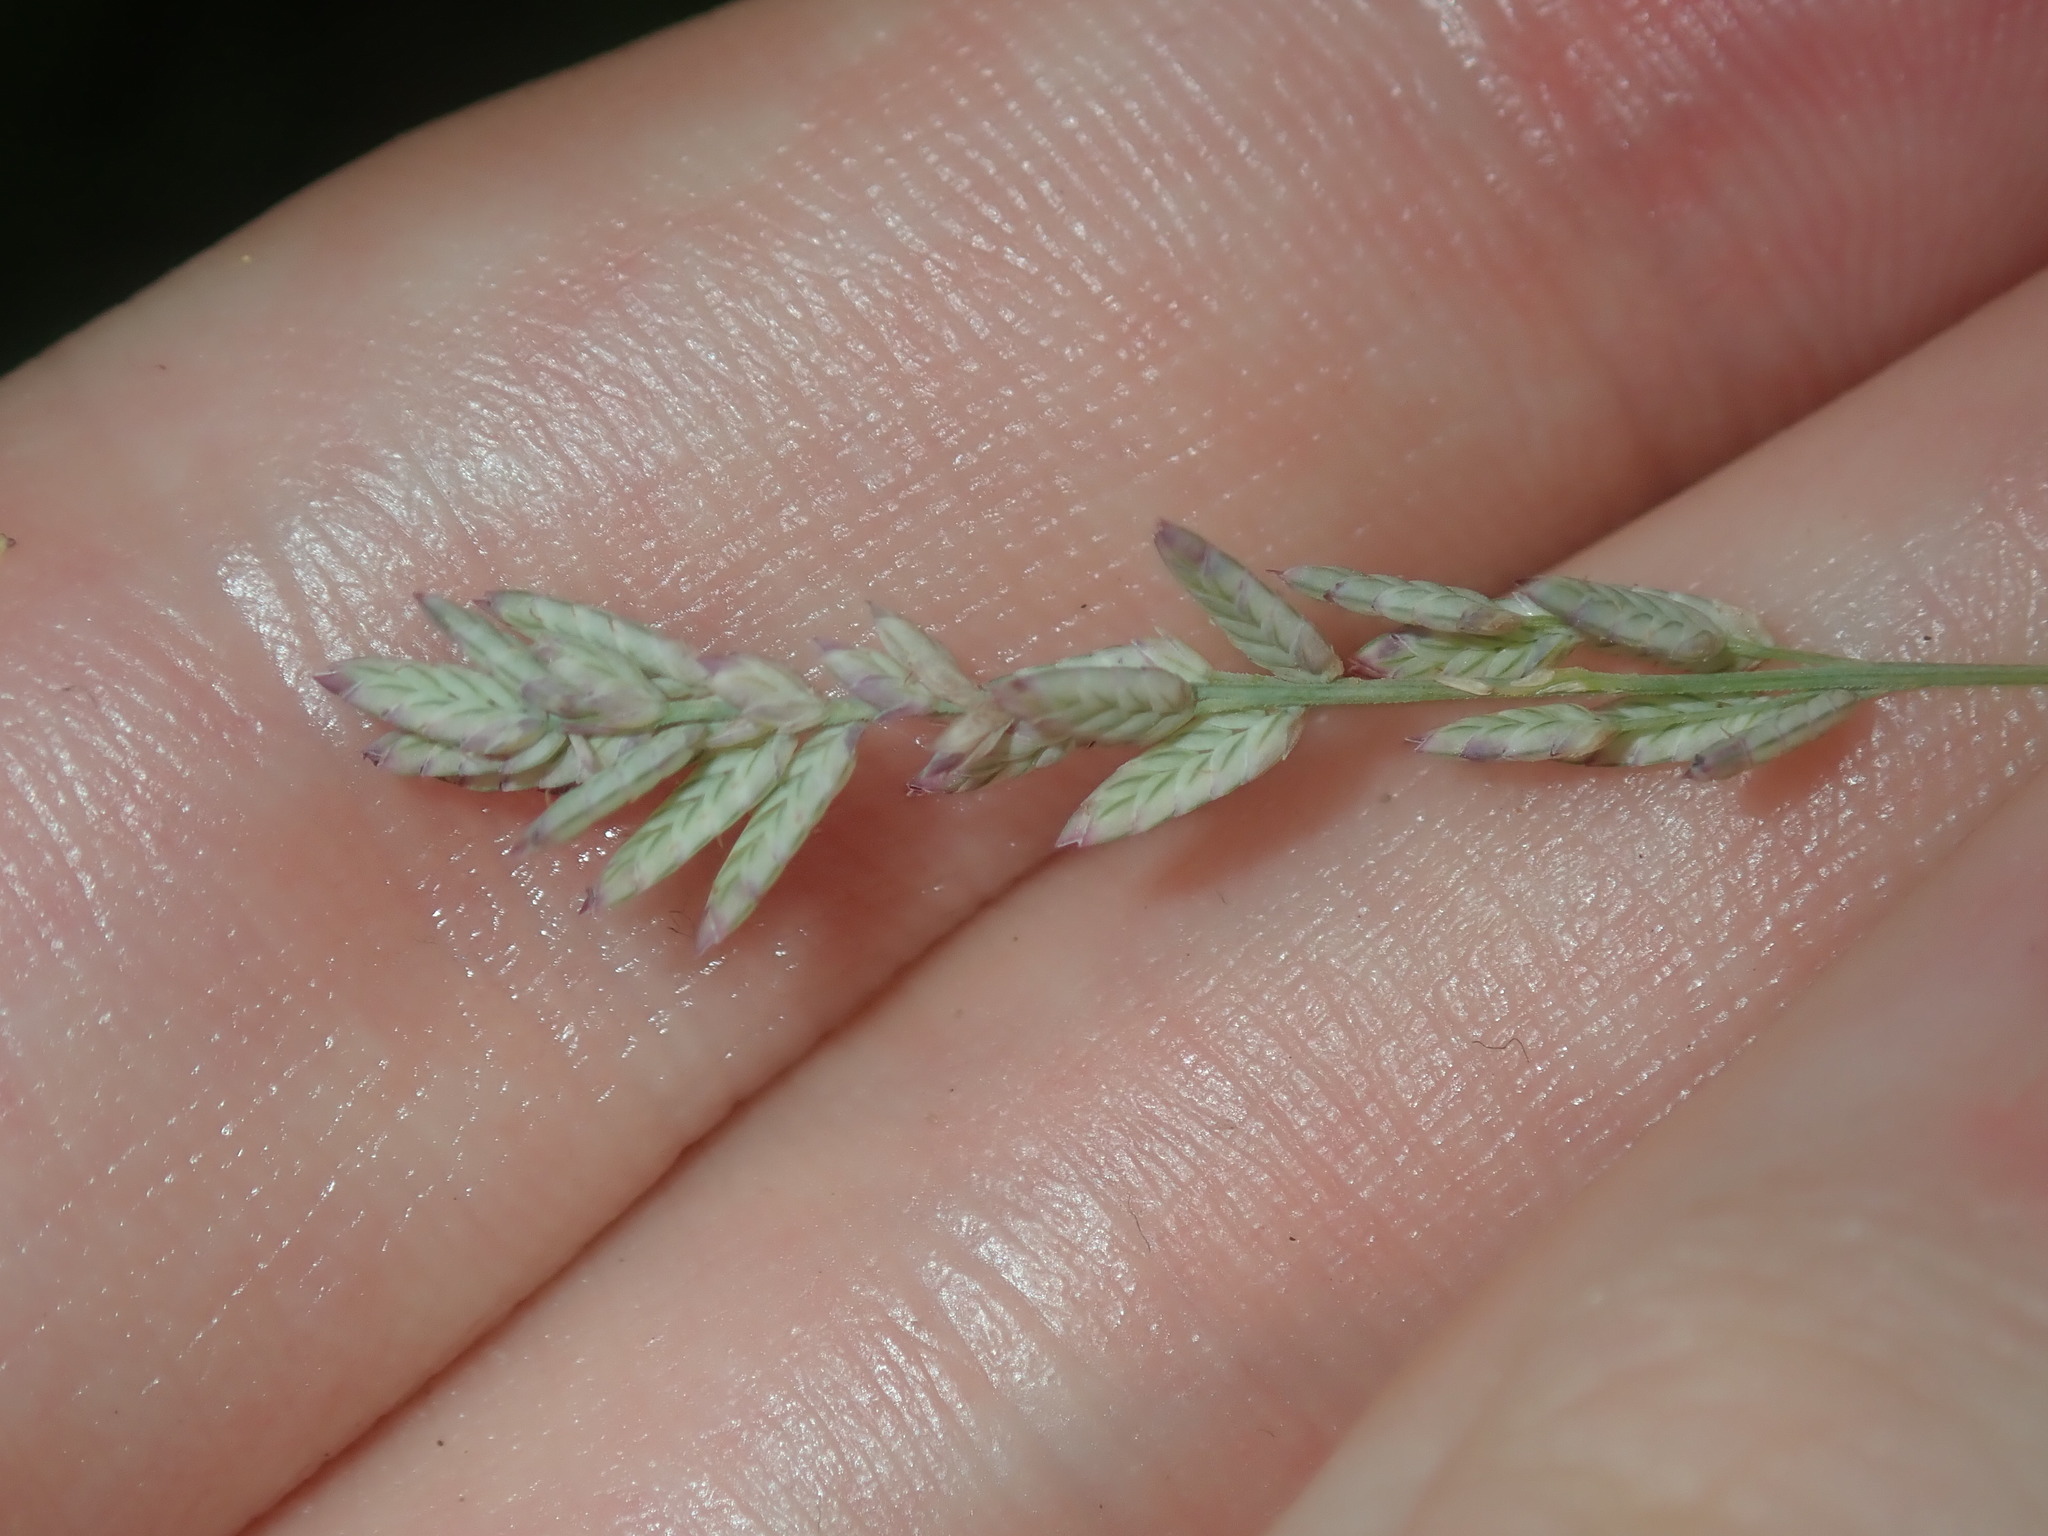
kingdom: Plantae
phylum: Tracheophyta
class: Liliopsida
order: Poales
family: Poaceae
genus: Eragrostis
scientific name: Eragrostis elongata
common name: Long lovegrass
